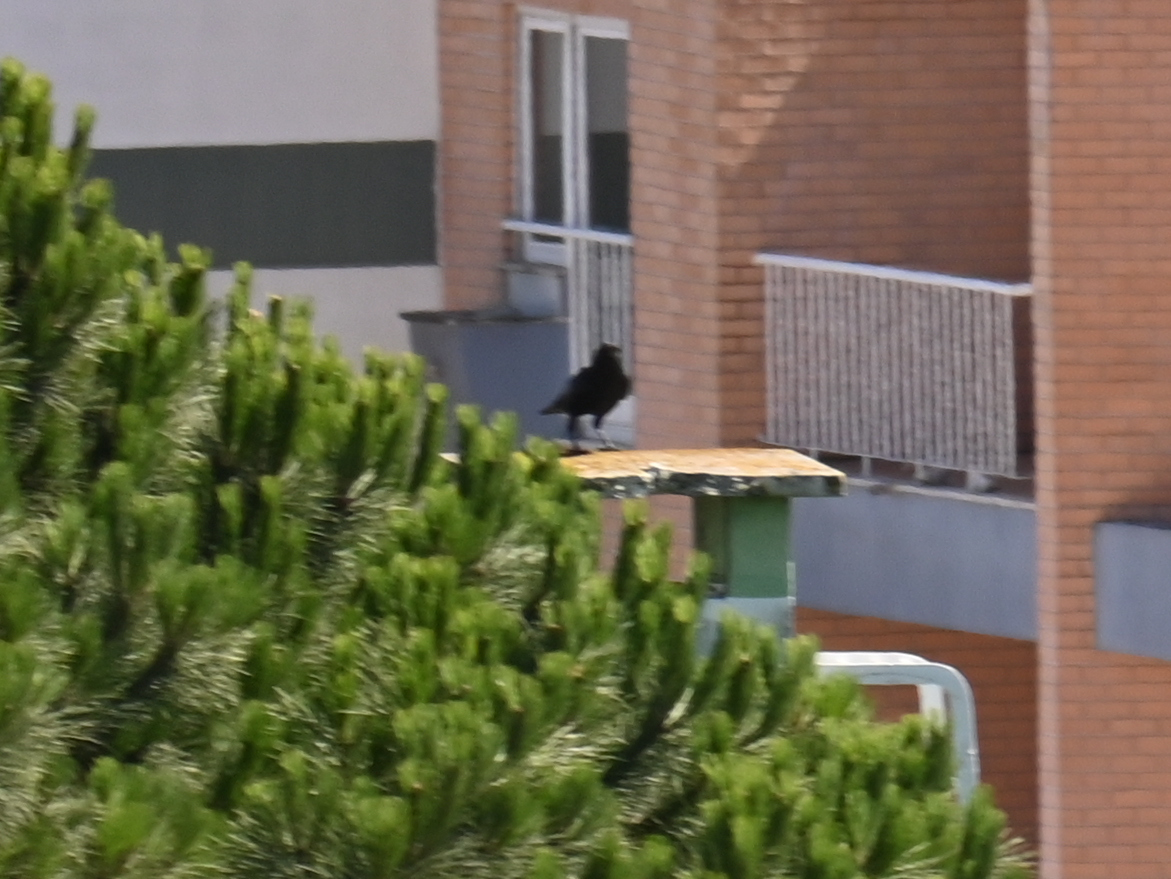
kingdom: Animalia
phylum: Chordata
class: Aves
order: Passeriformes
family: Corvidae
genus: Corvus
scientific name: Corvus corone
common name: Carrion crow
